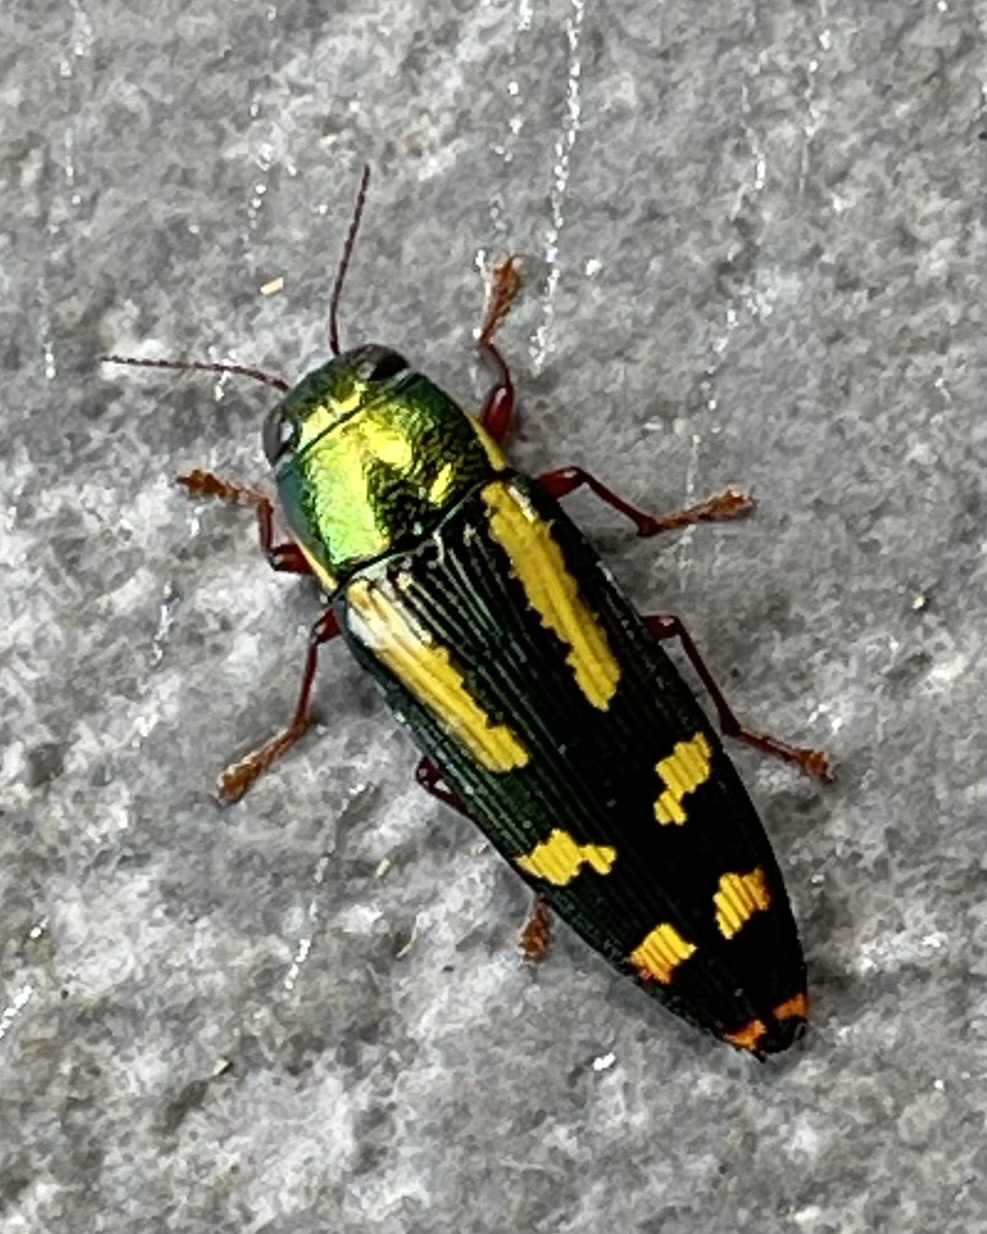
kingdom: Animalia
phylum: Arthropoda
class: Insecta
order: Coleoptera
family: Buprestidae
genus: Buprestis
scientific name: Buprestis rufipes
